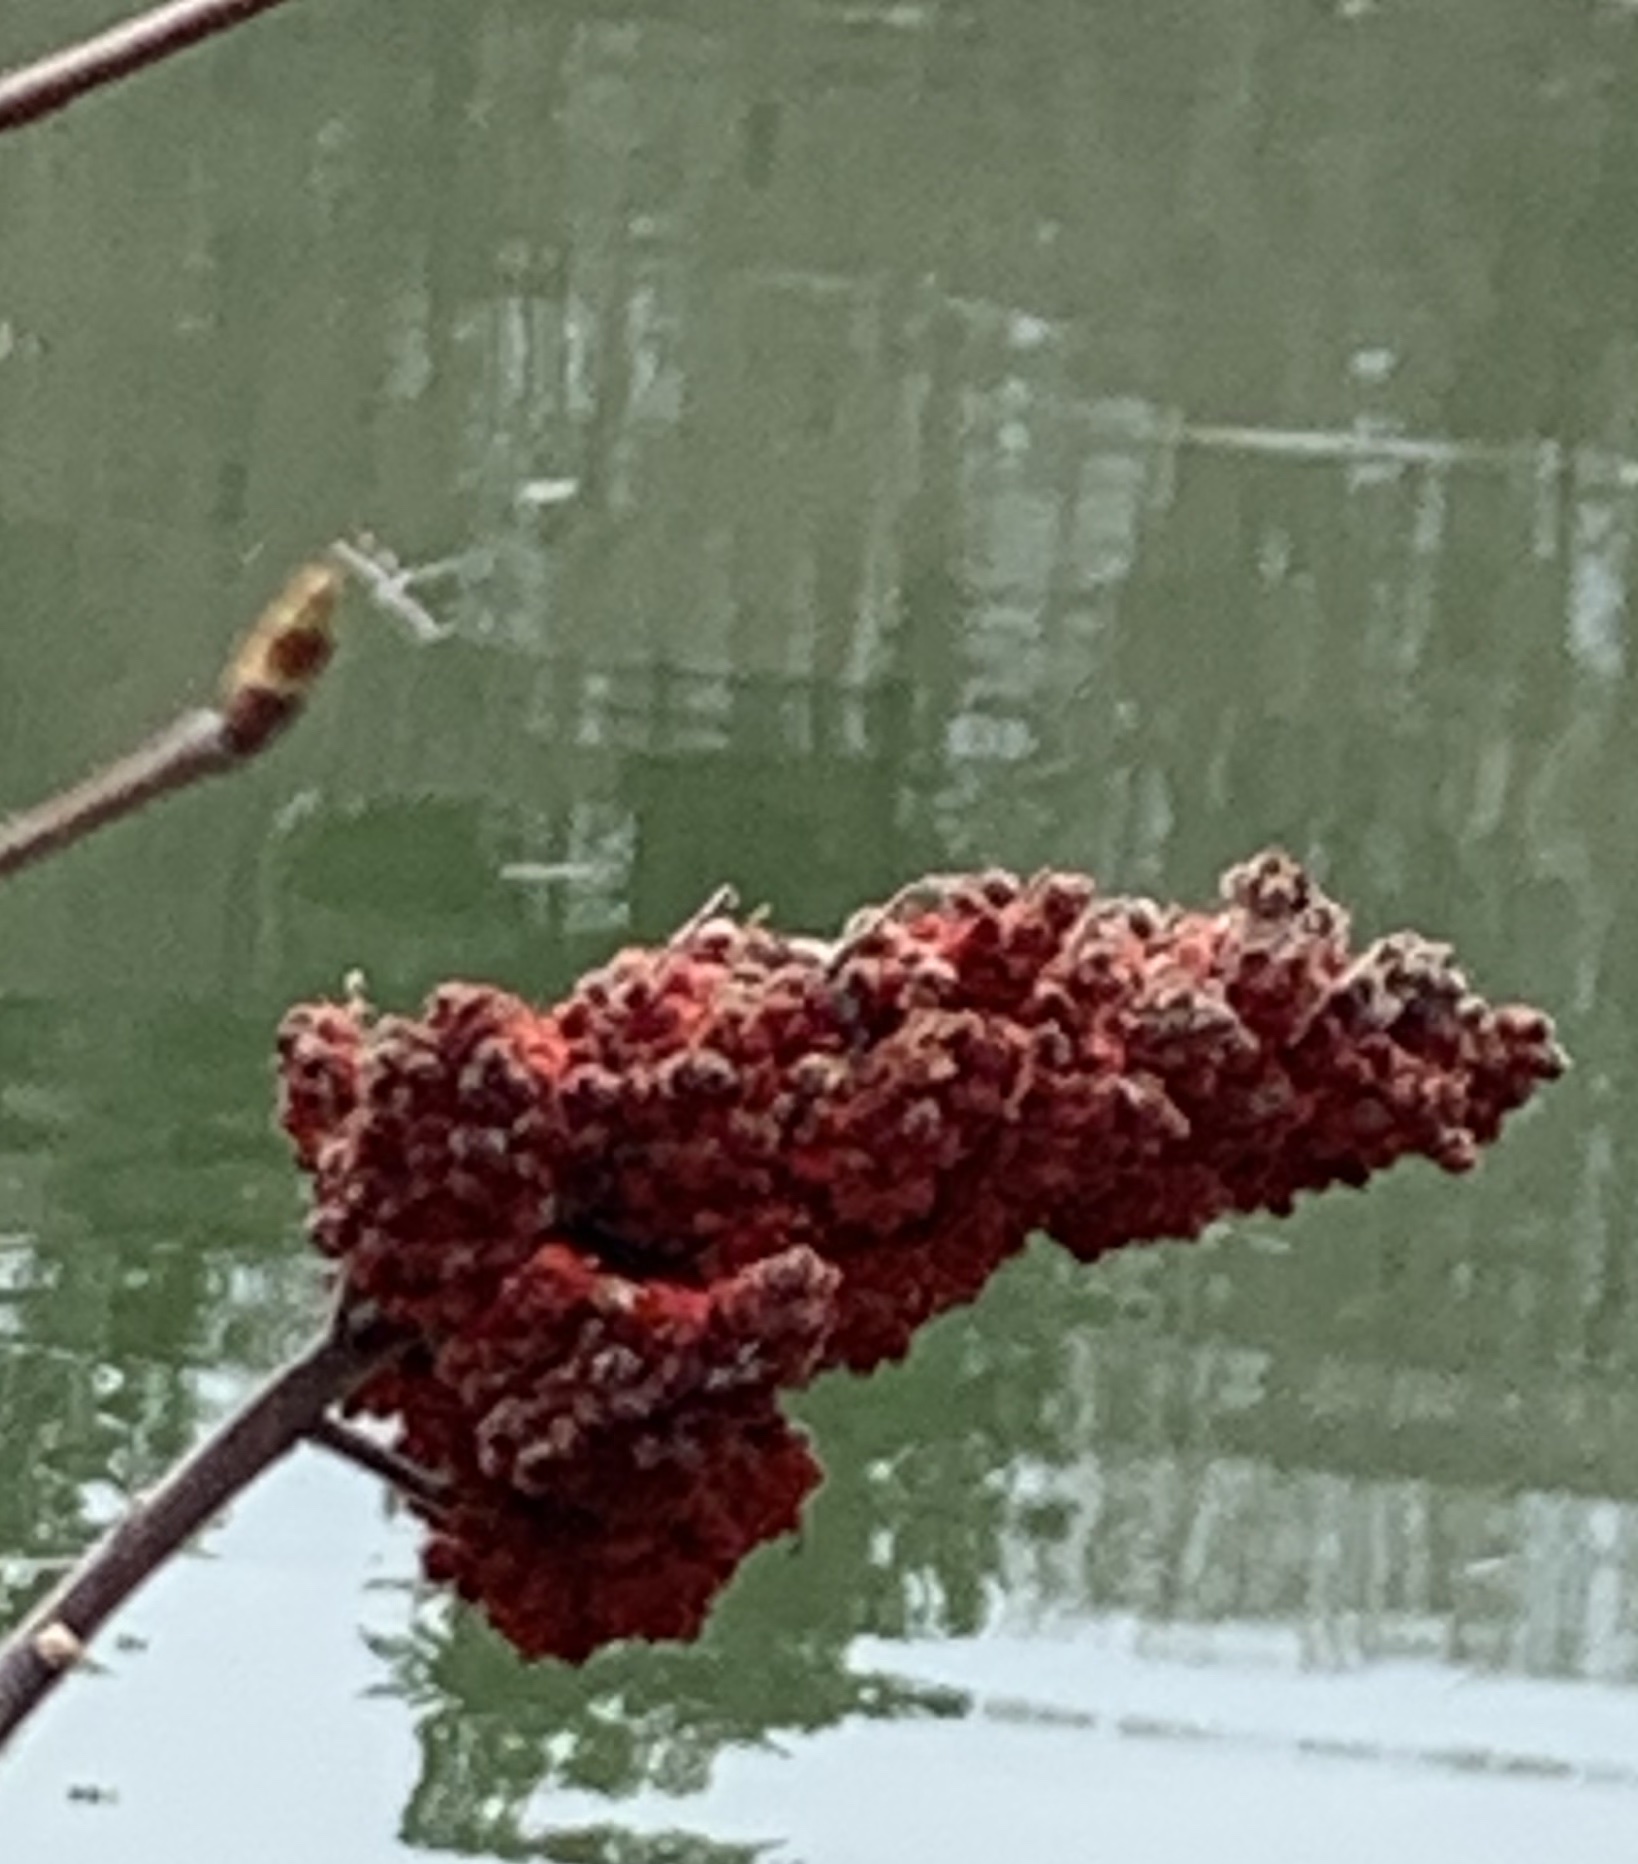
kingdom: Plantae
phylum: Tracheophyta
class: Magnoliopsida
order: Sapindales
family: Anacardiaceae
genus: Rhus
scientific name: Rhus typhina
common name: Staghorn sumac
